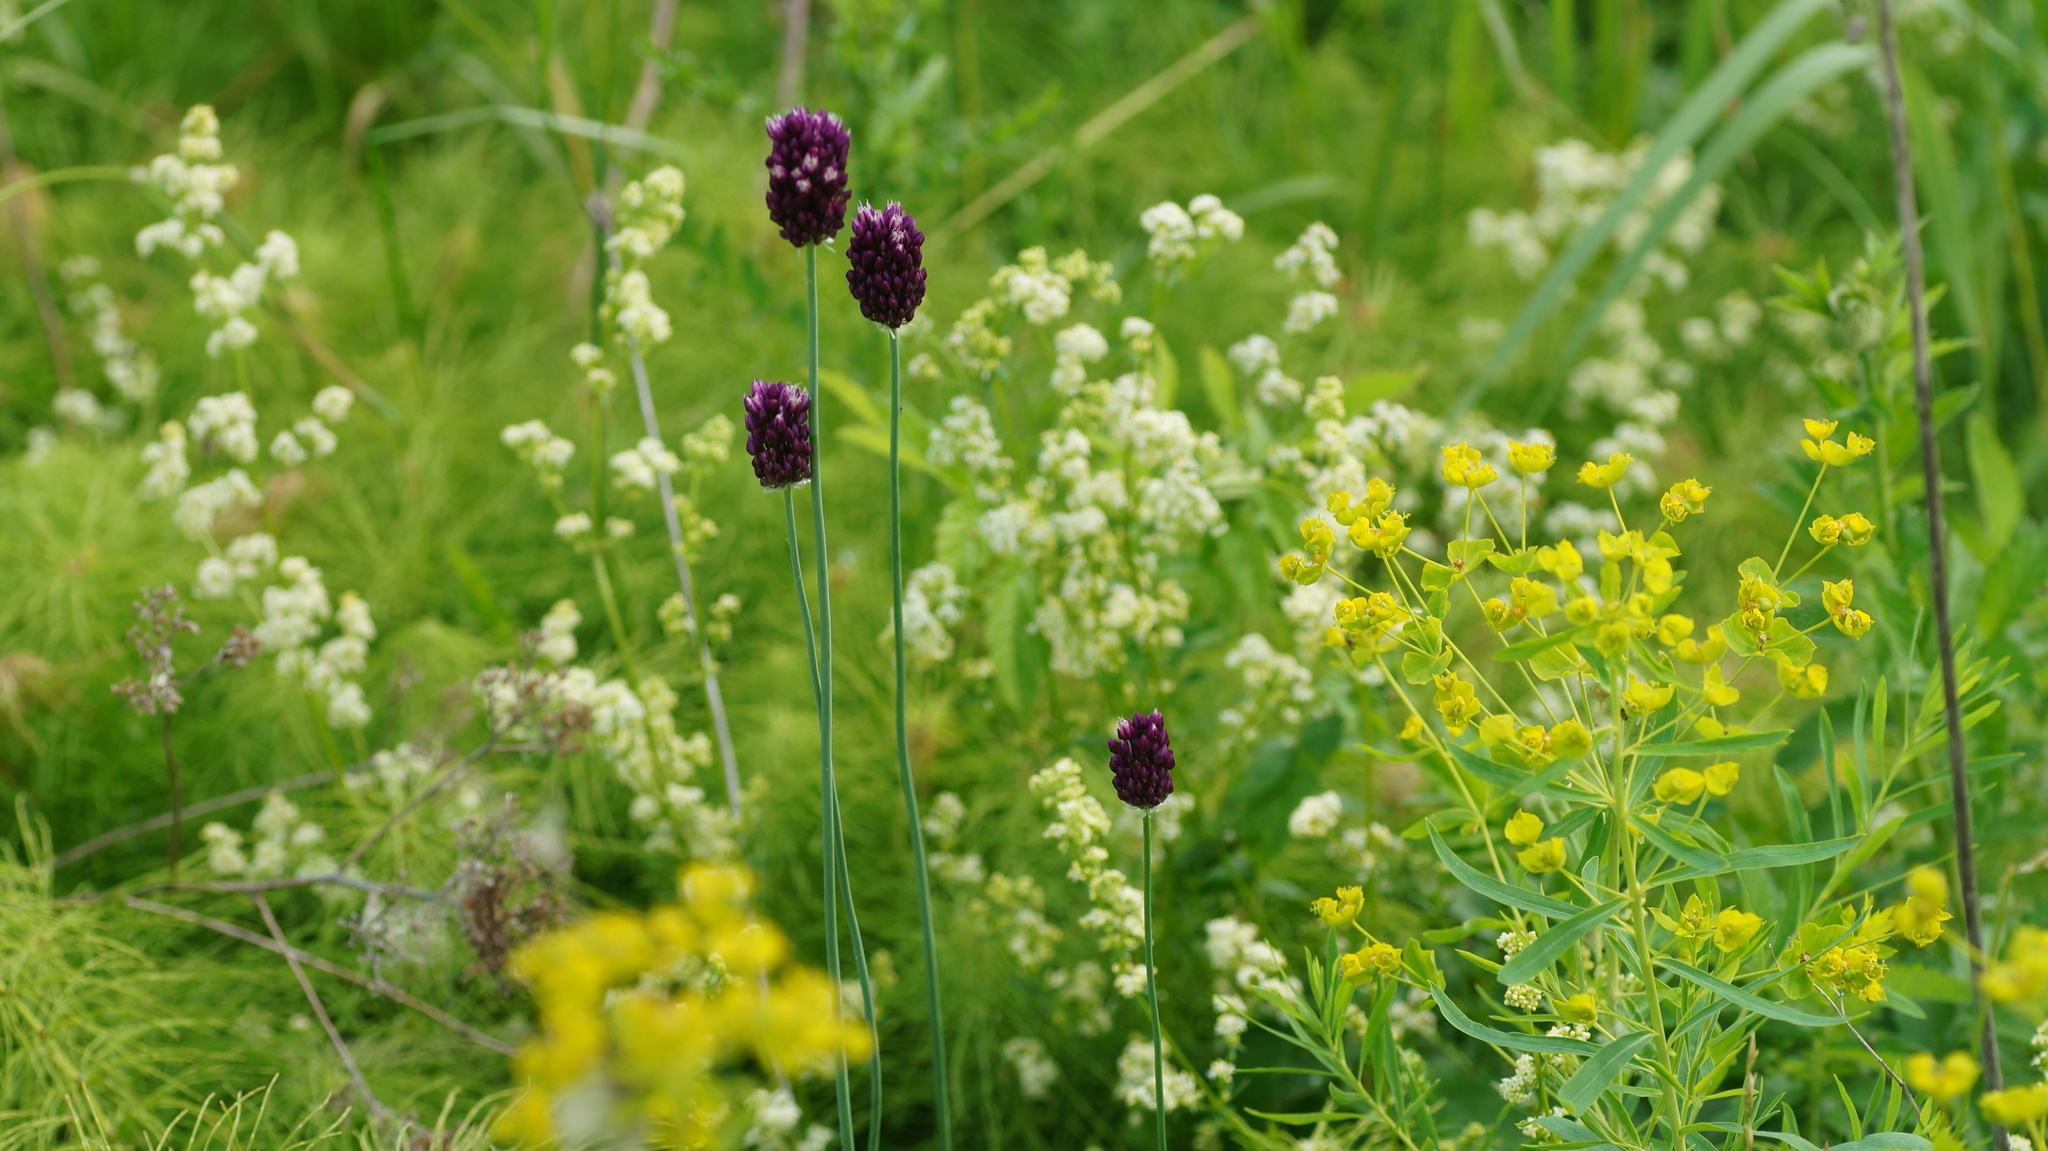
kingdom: Plantae
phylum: Tracheophyta
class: Liliopsida
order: Asparagales
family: Amaryllidaceae
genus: Allium
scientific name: Allium rotundum
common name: Sand leek
